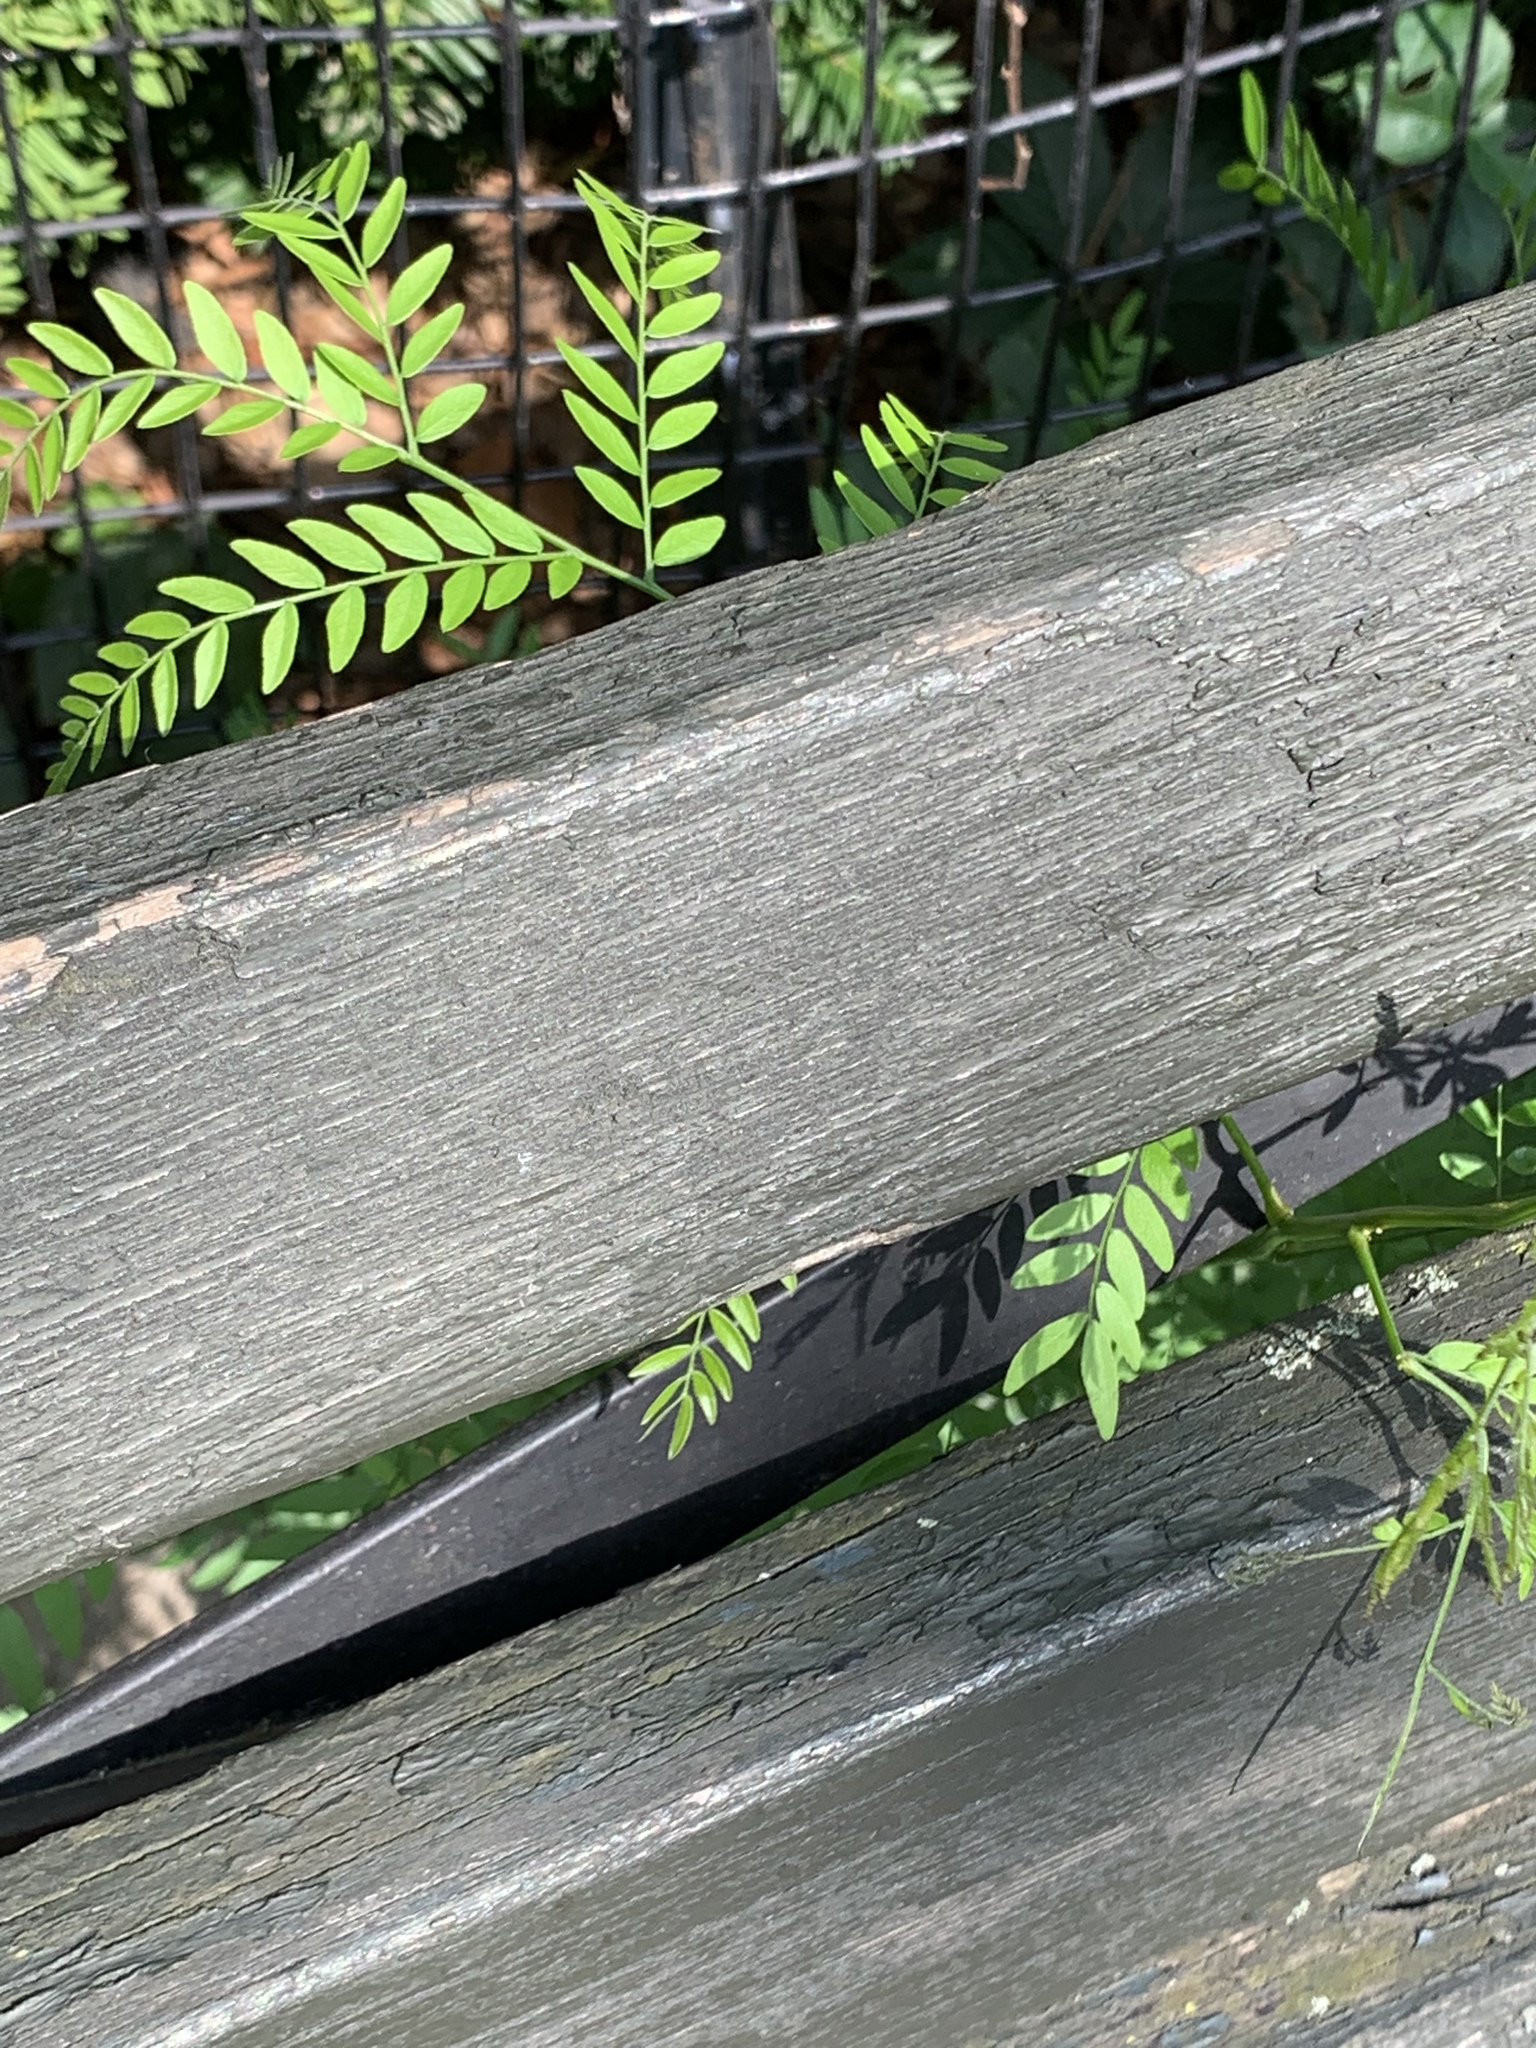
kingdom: Plantae
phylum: Tracheophyta
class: Magnoliopsida
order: Fabales
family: Fabaceae
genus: Gleditsia
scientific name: Gleditsia triacanthos
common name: Common honeylocust
